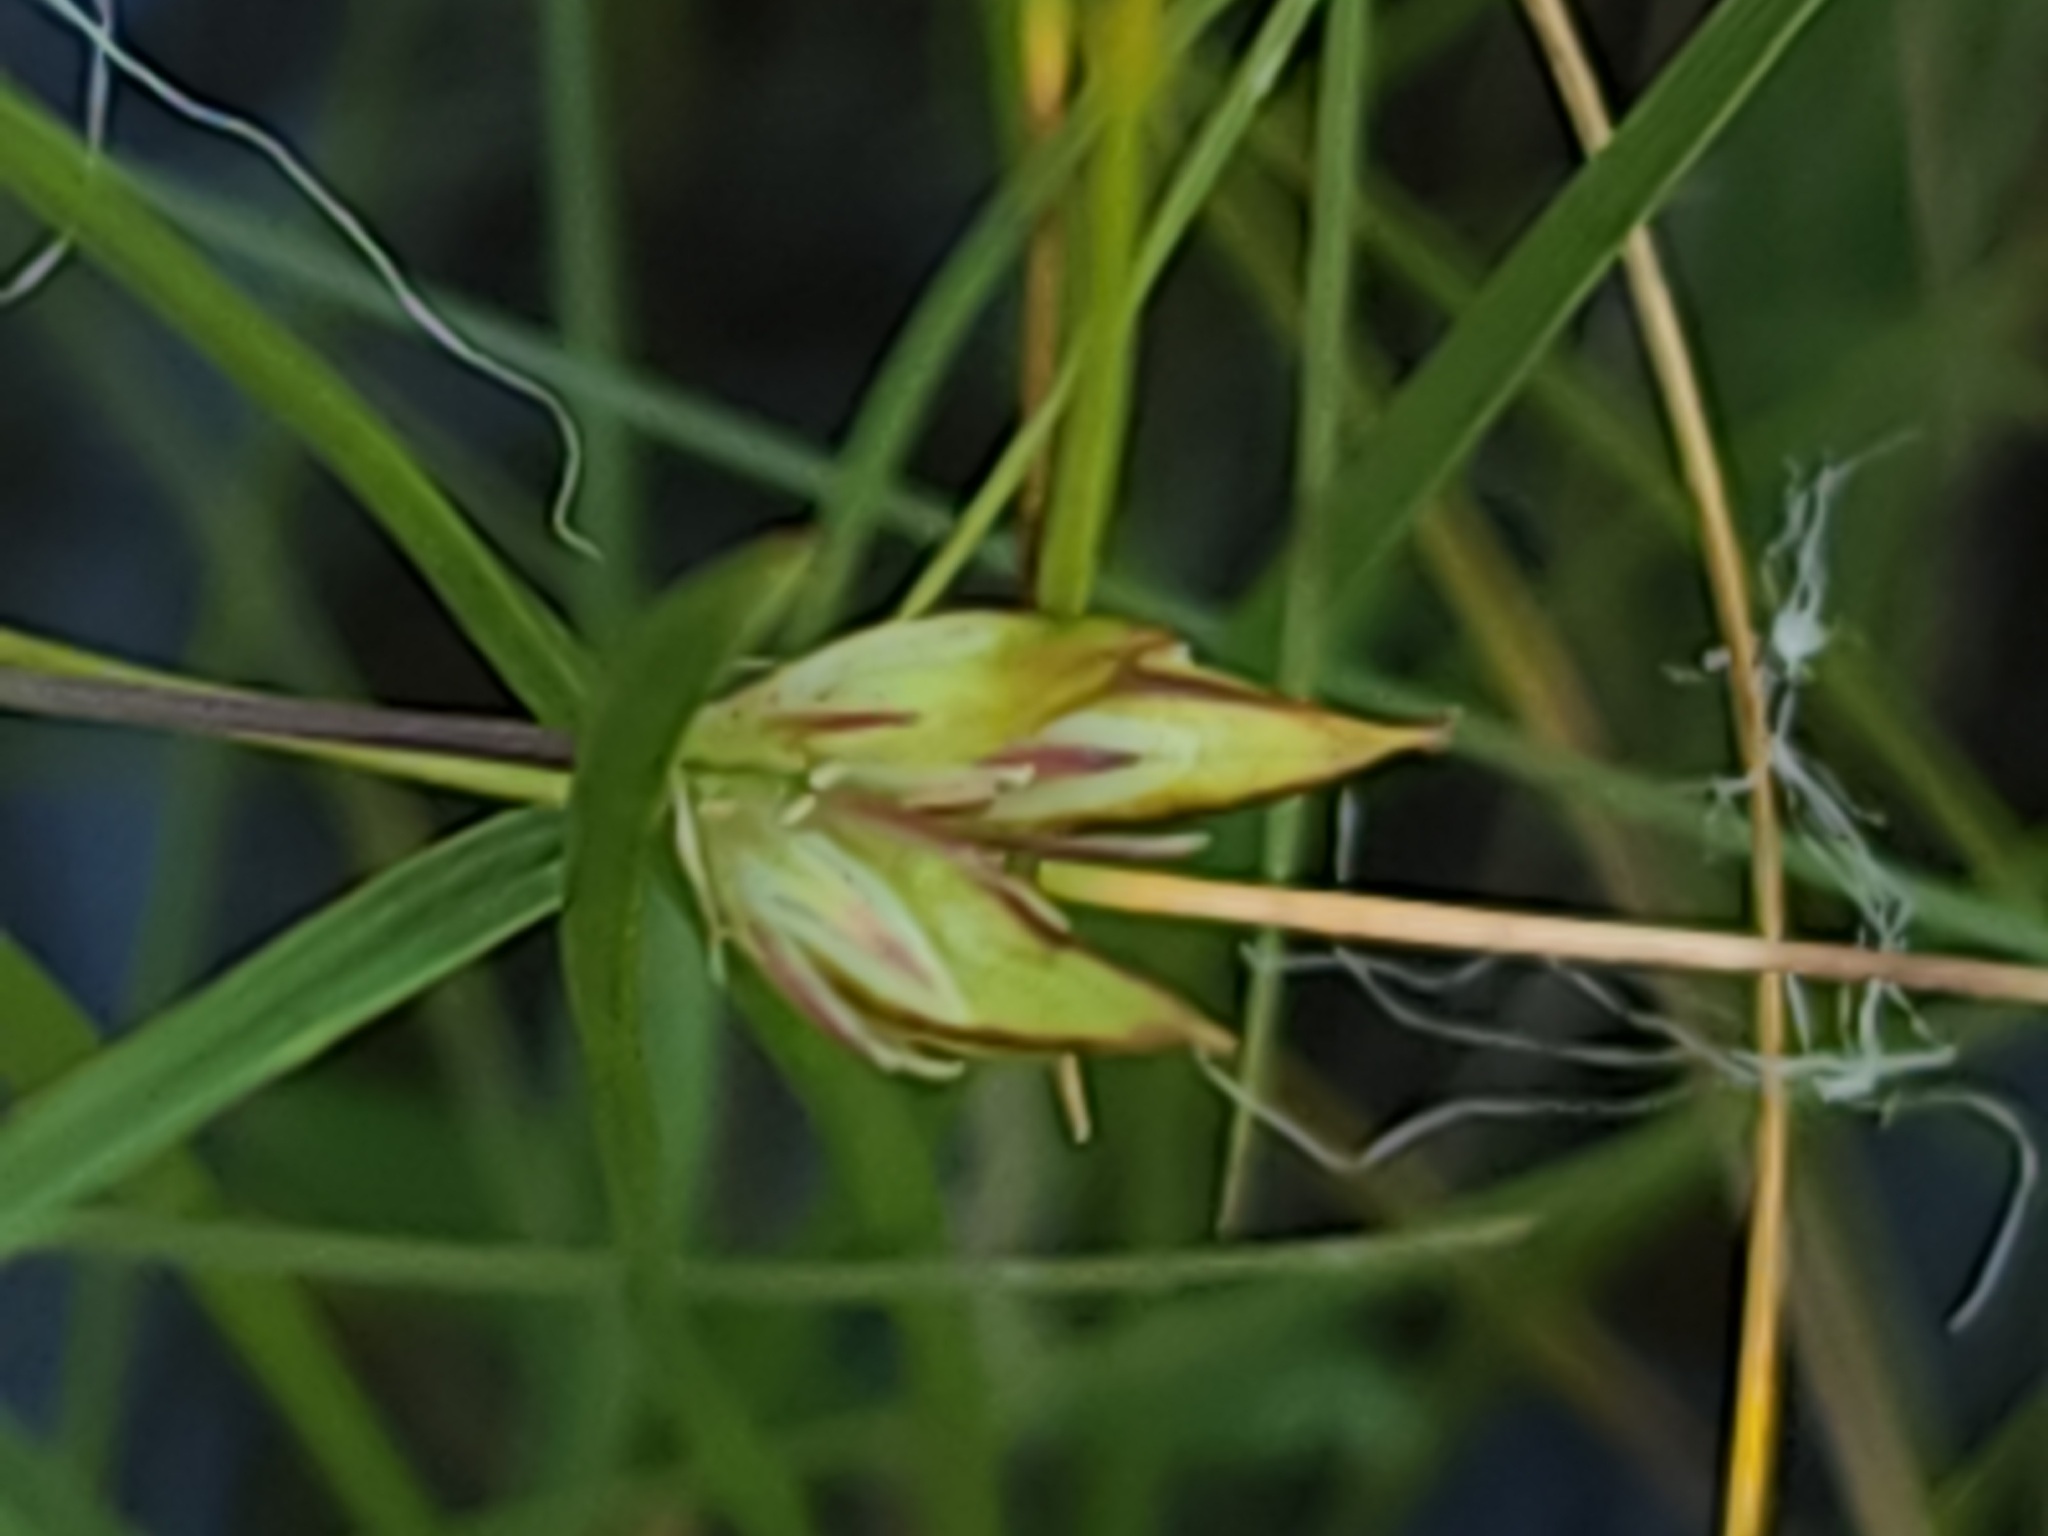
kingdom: Plantae
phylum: Tracheophyta
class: Liliopsida
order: Poales
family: Juncaceae
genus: Juncus
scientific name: Juncus stygius
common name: Bog rush
